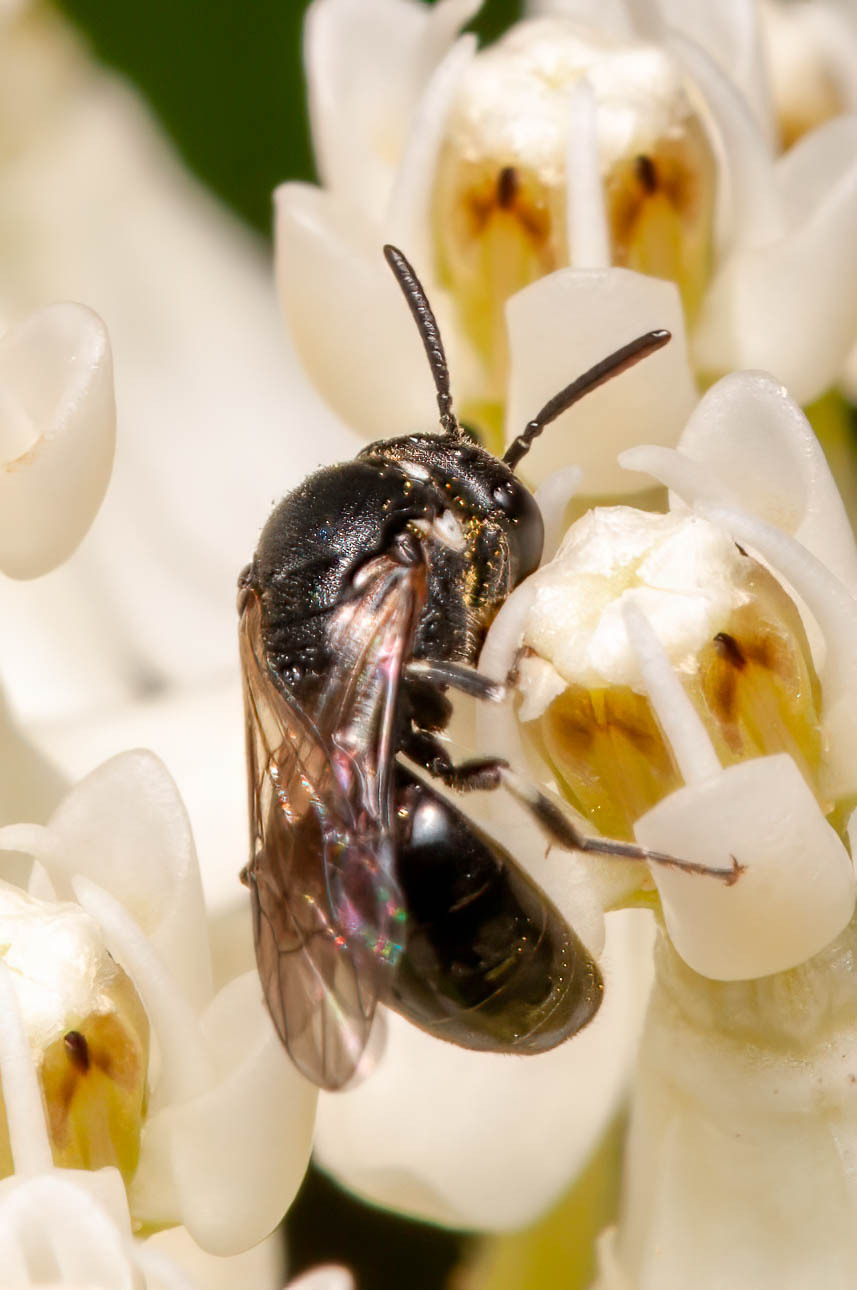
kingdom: Animalia
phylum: Arthropoda
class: Insecta
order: Hymenoptera
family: Colletidae
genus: Hylaeus
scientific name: Hylaeus leptocephalus
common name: Slender-faced masked bee
